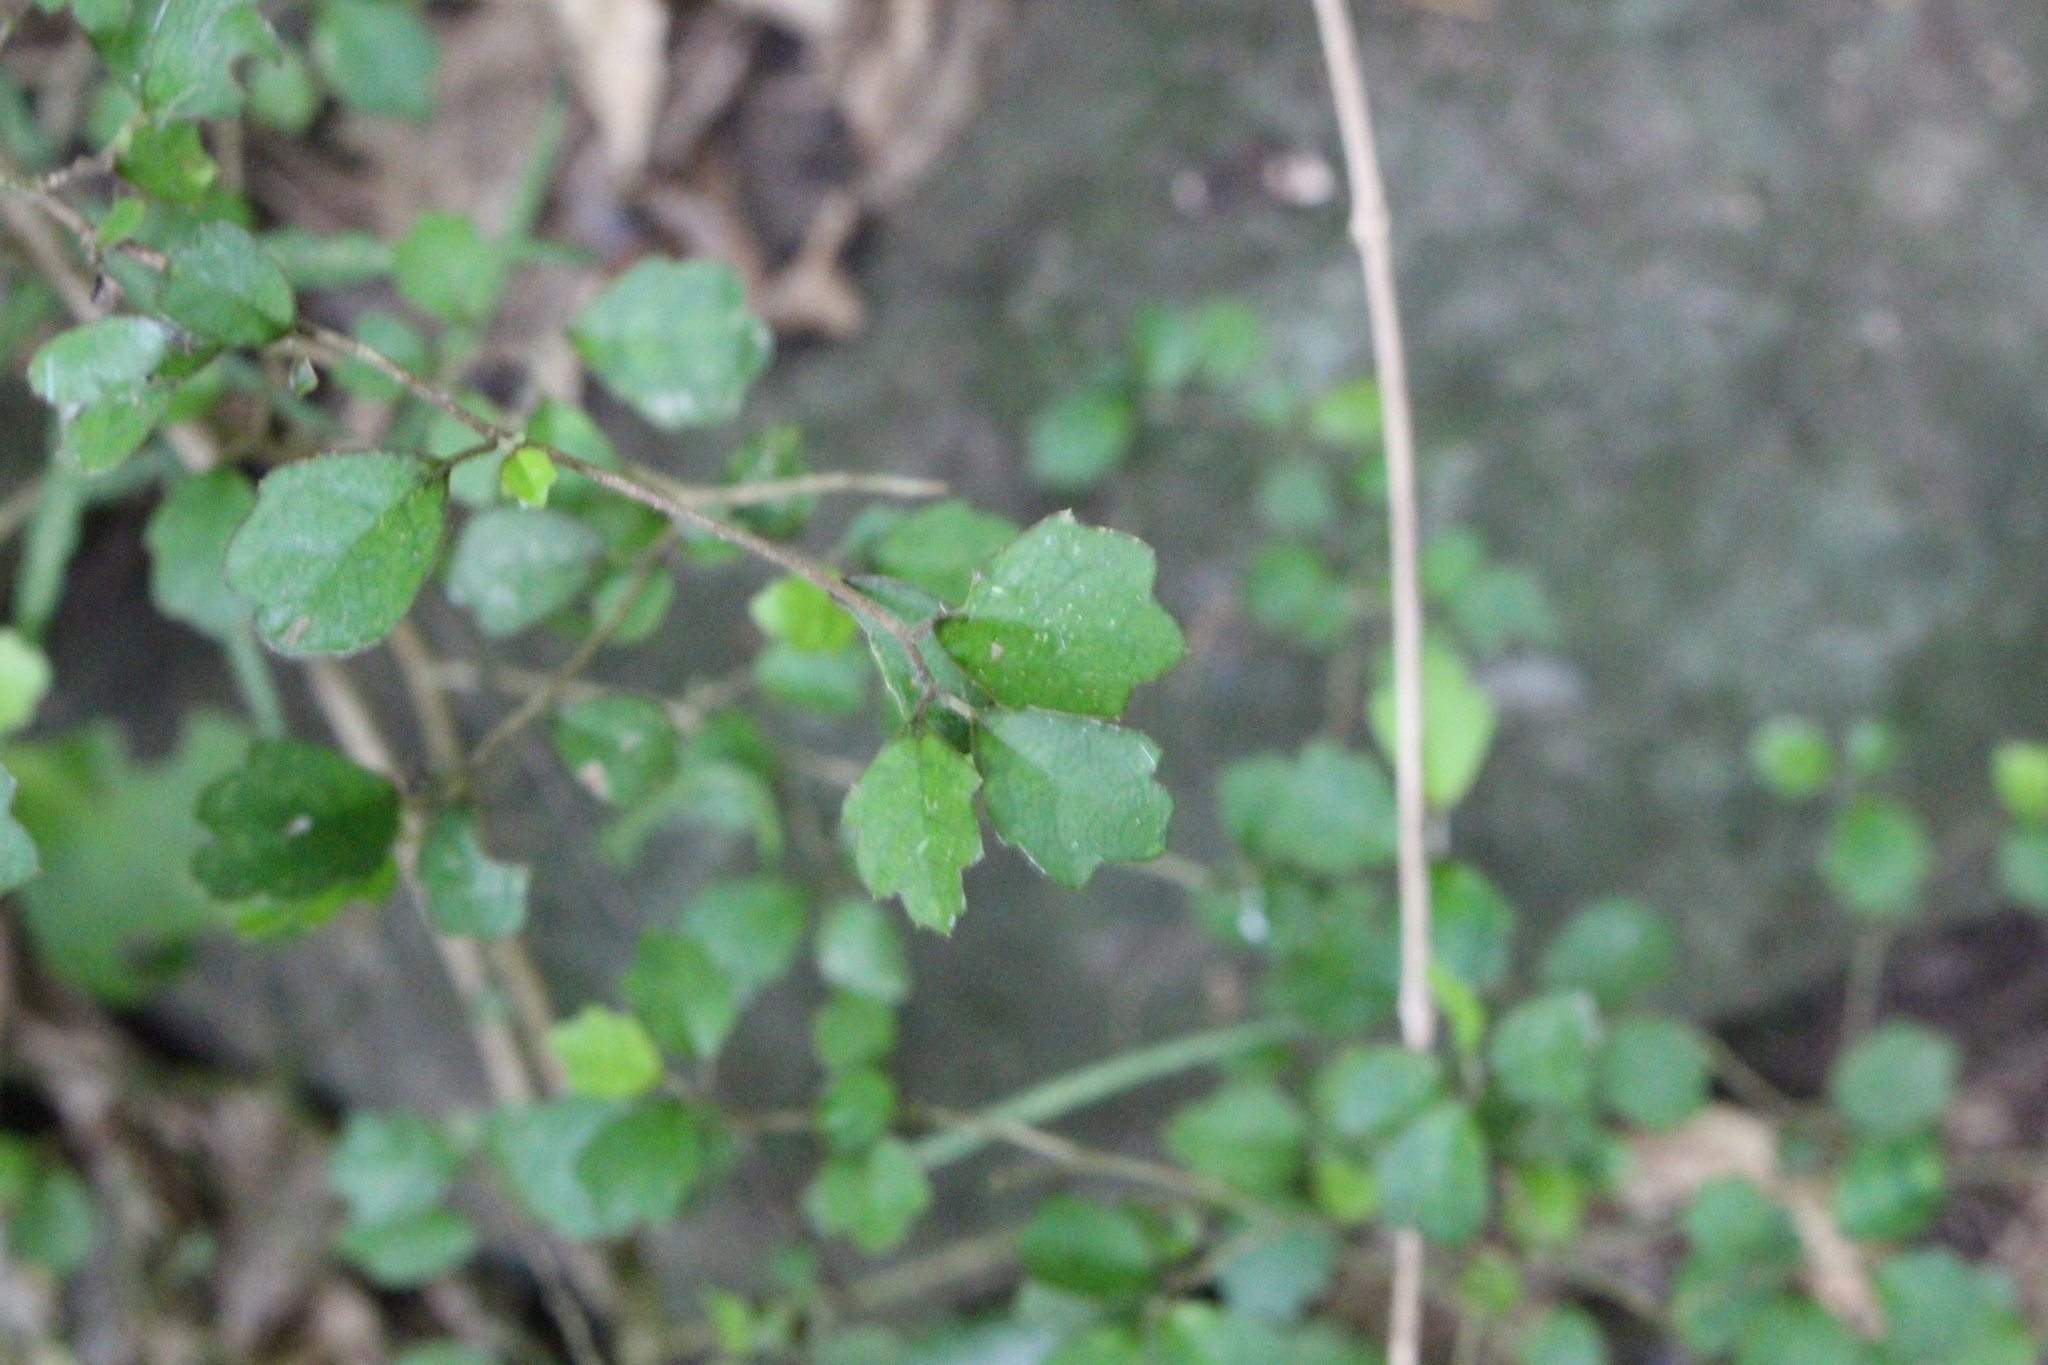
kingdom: Plantae
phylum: Tracheophyta
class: Magnoliopsida
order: Apiales
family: Pennantiaceae
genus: Pennantia
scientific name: Pennantia corymbosa
